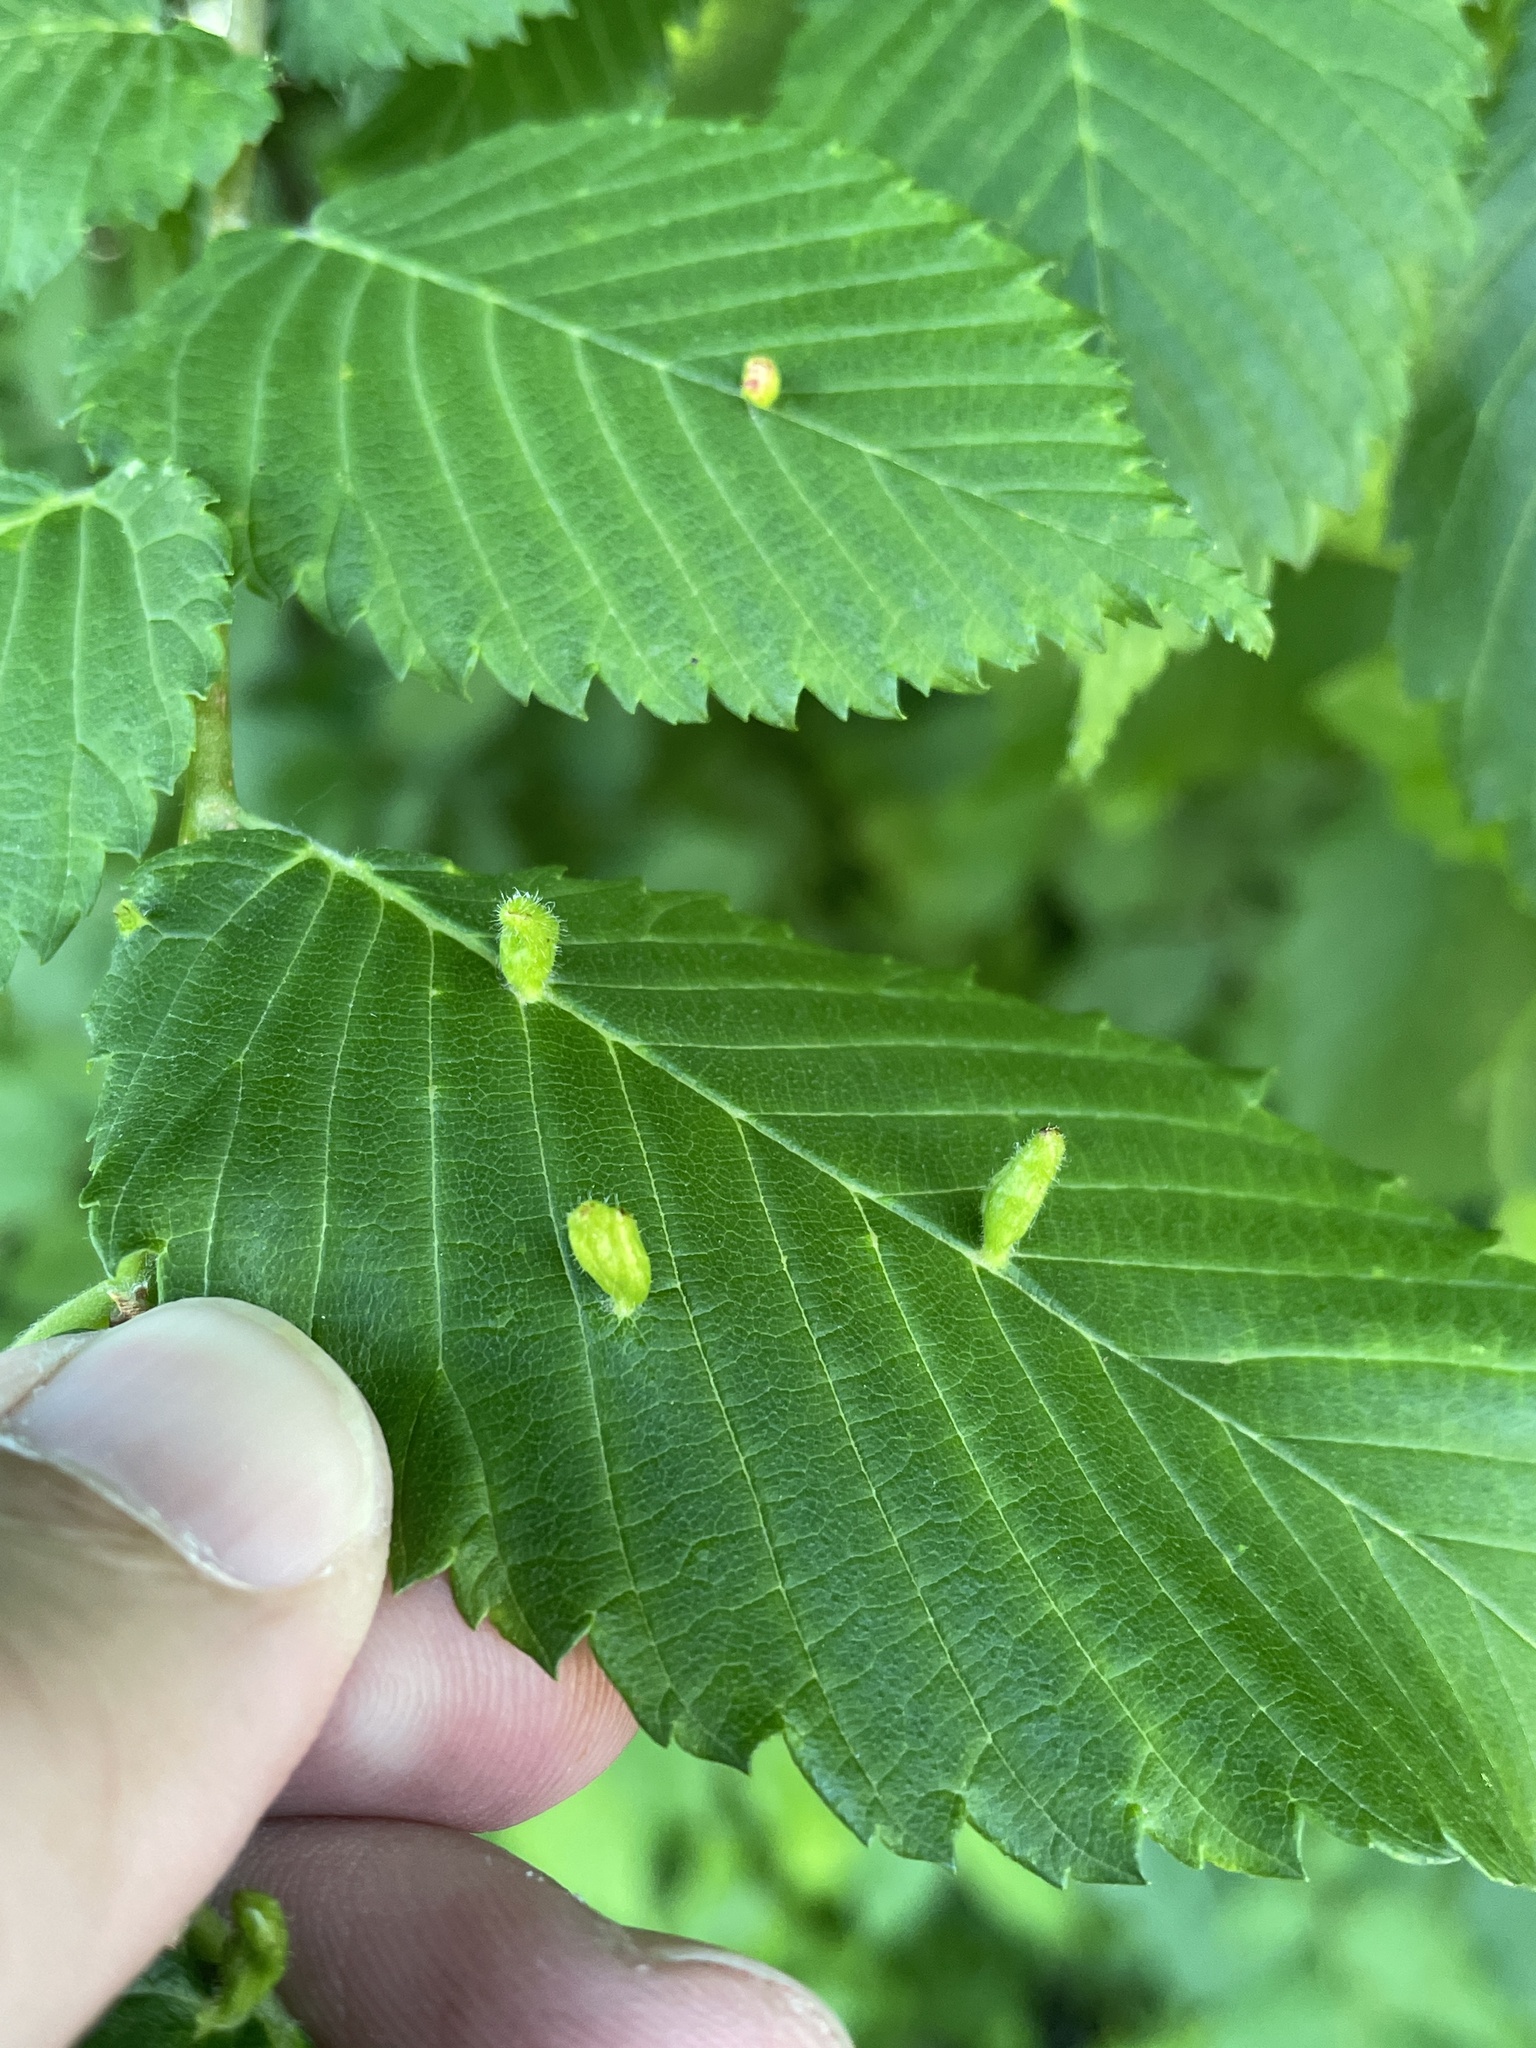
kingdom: Animalia
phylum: Arthropoda
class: Arachnida
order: Trombidiformes
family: Eriophyidae
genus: Aceria
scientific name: Aceria
